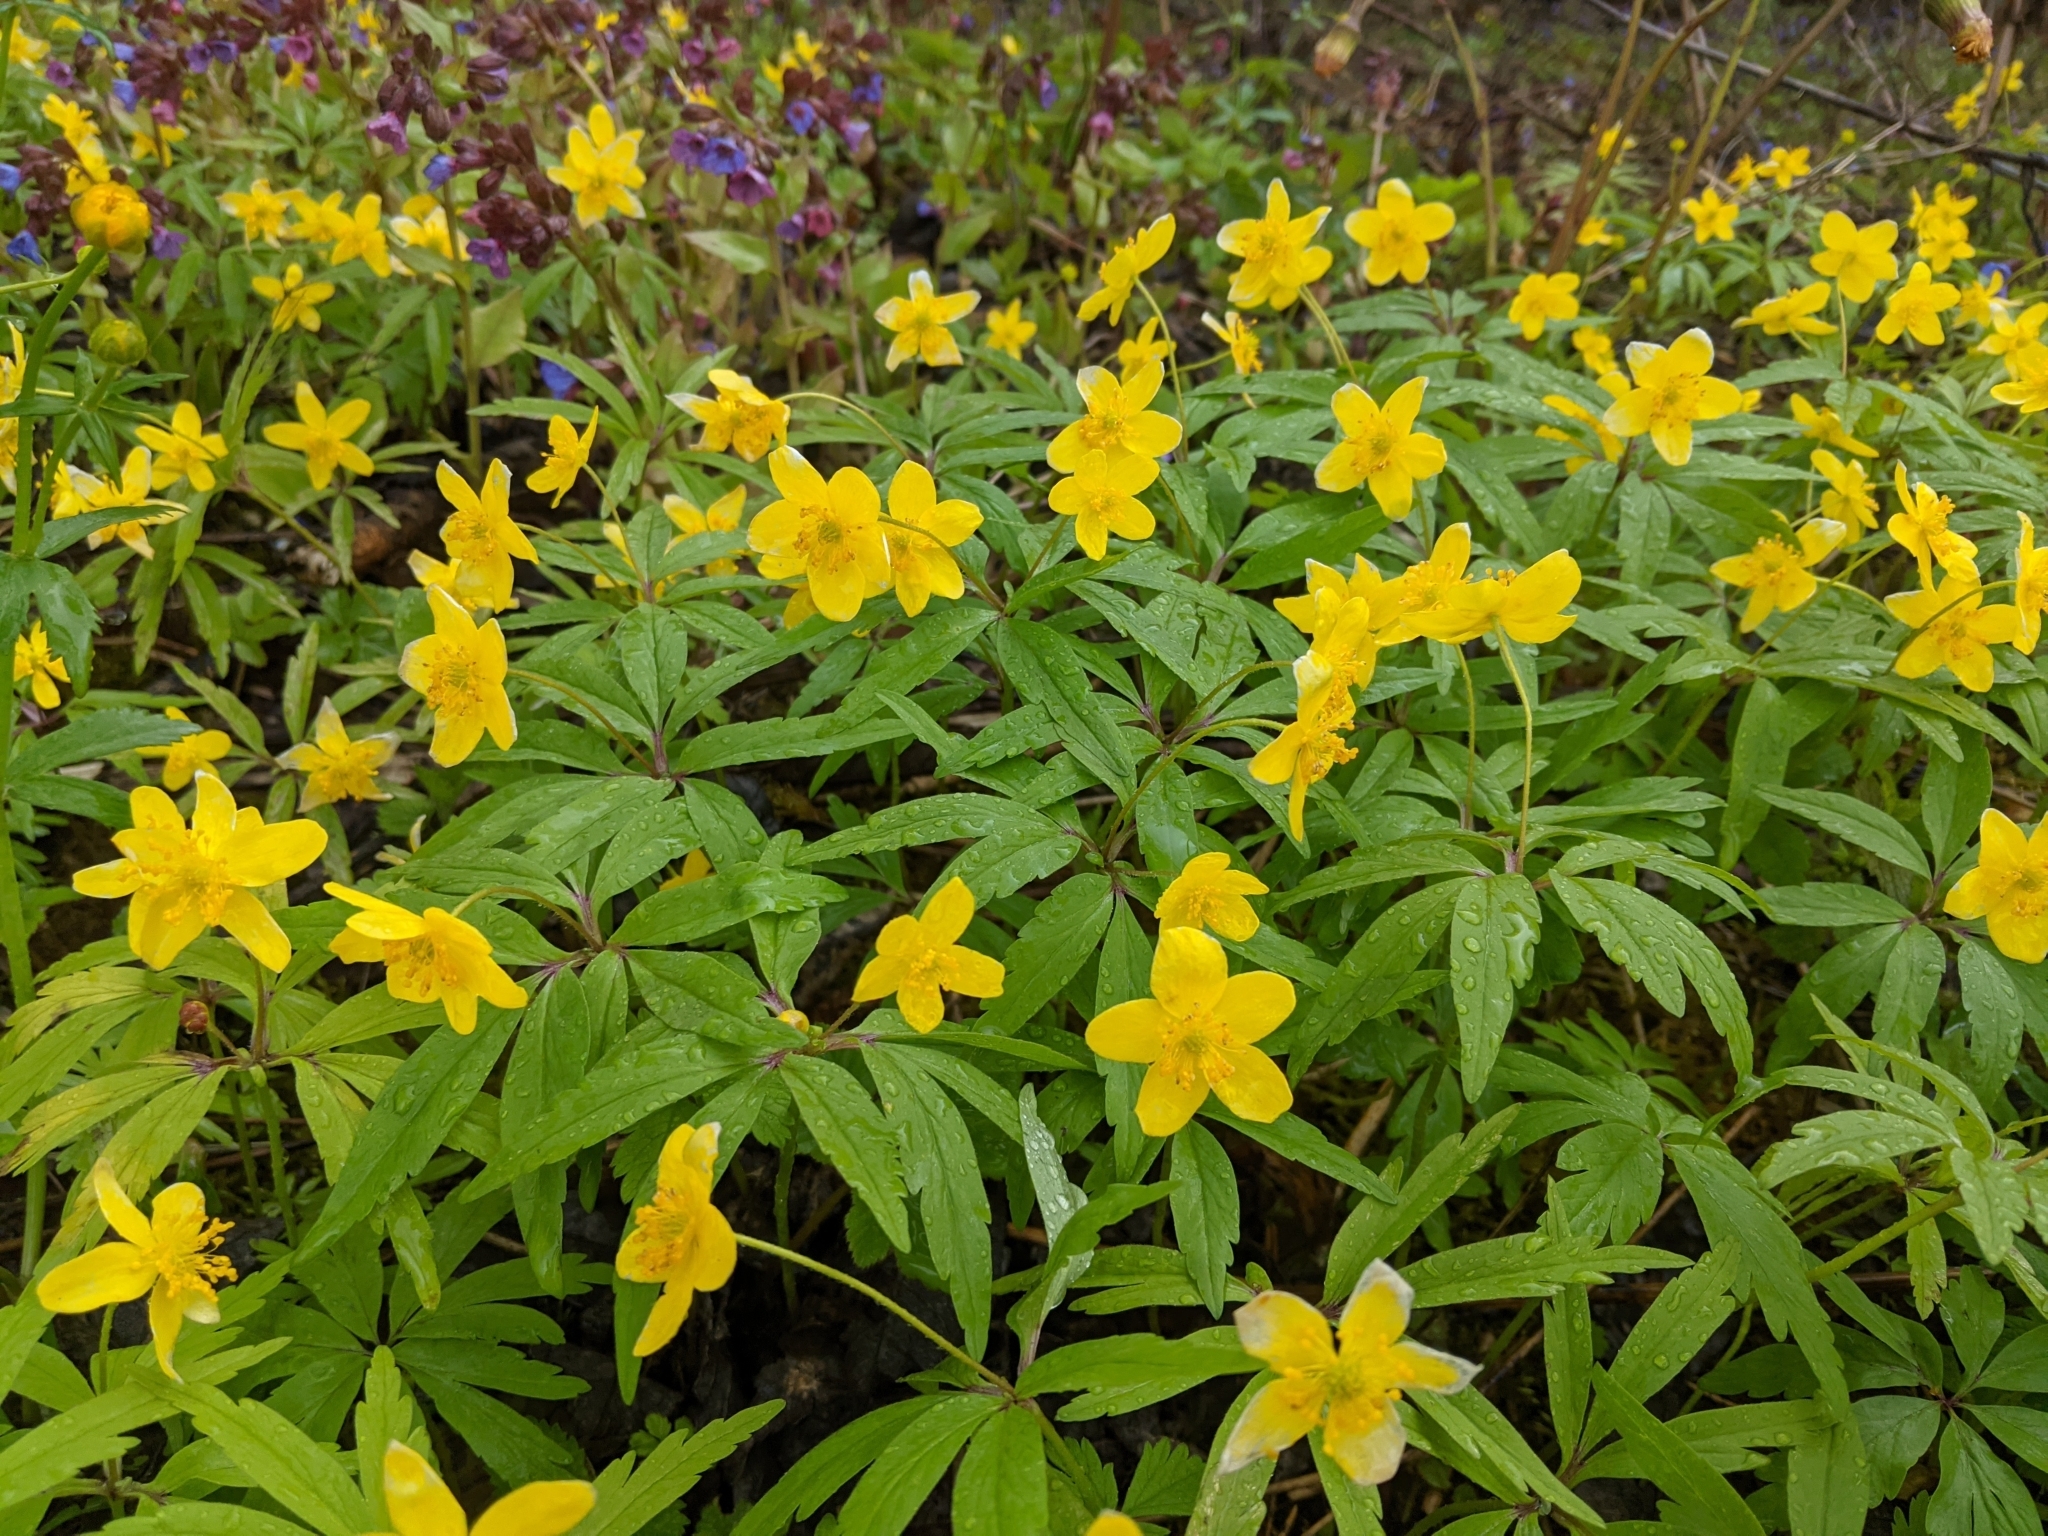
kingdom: Plantae
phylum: Tracheophyta
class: Magnoliopsida
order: Ranunculales
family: Ranunculaceae
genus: Anemone
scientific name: Anemone ranunculoides
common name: Yellow anemone
